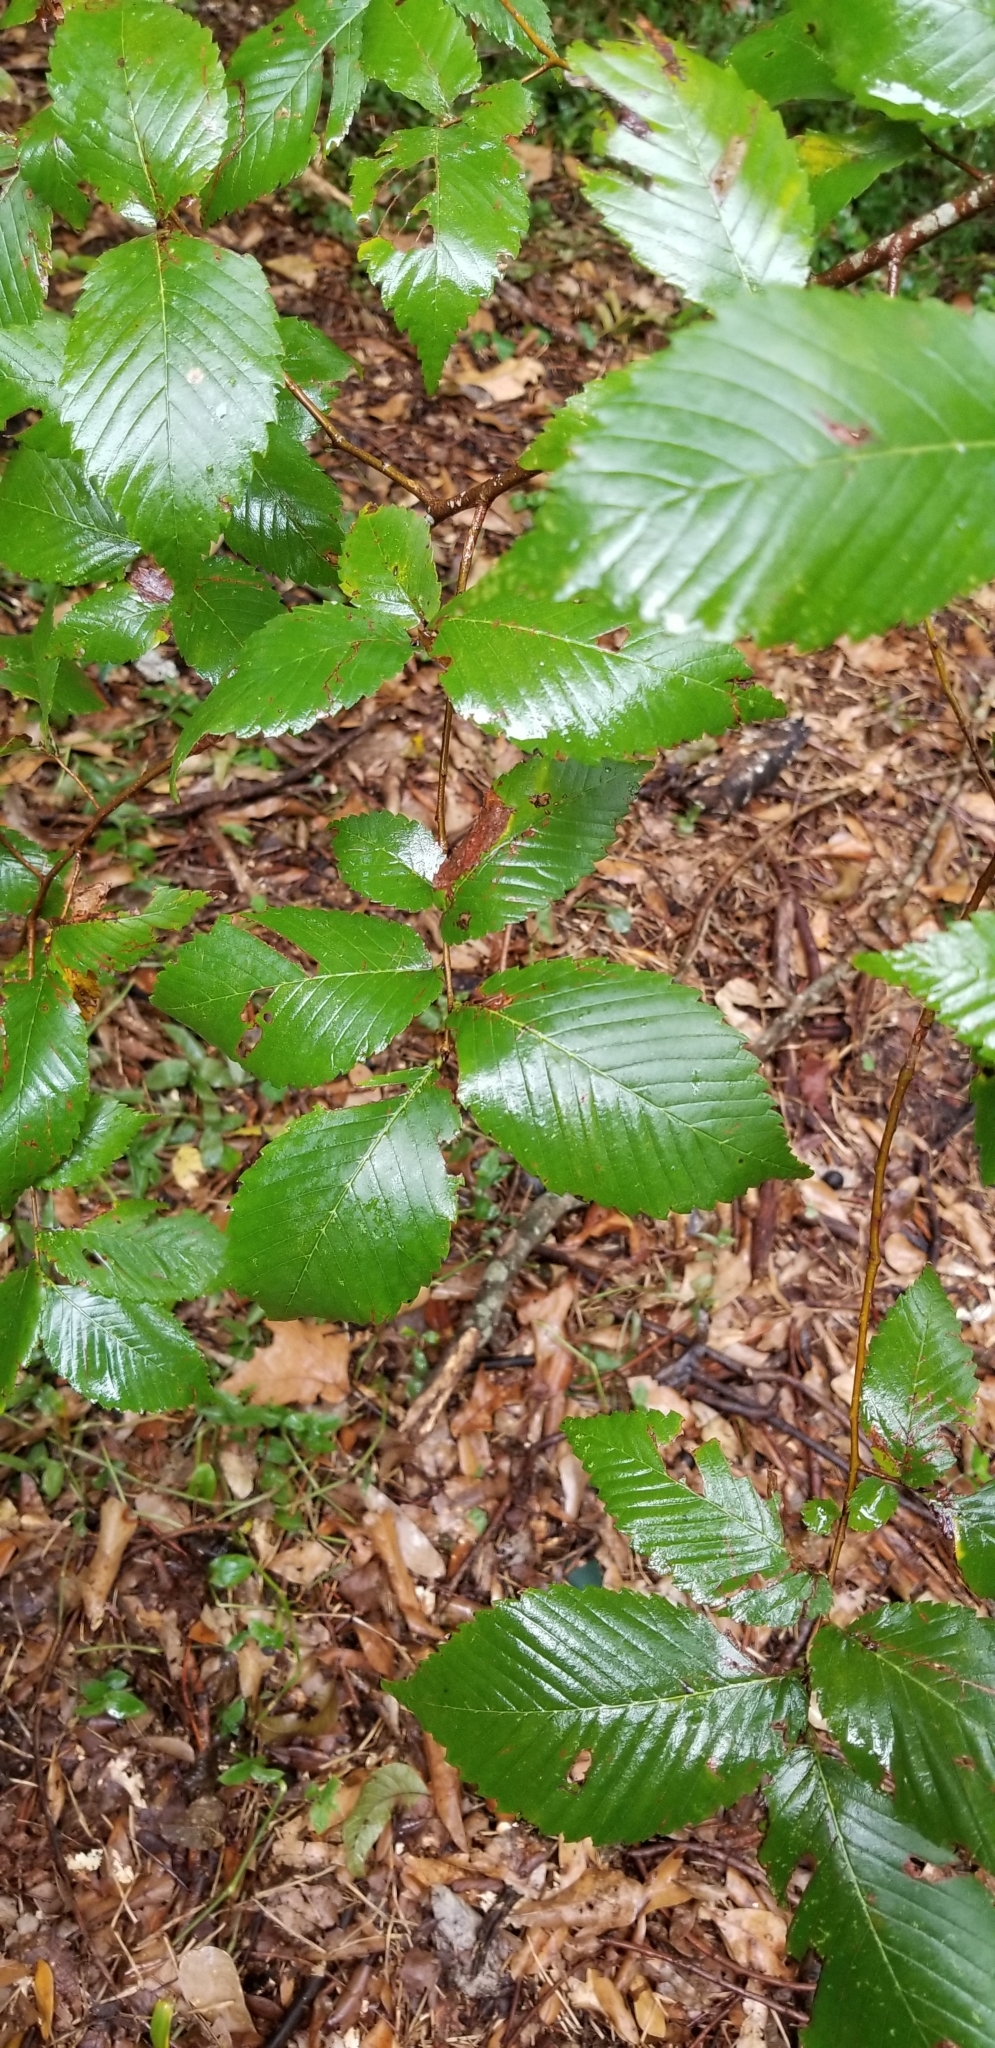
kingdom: Plantae
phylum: Tracheophyta
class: Magnoliopsida
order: Rosales
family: Ulmaceae
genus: Ulmus
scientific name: Ulmus americana
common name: American elm
